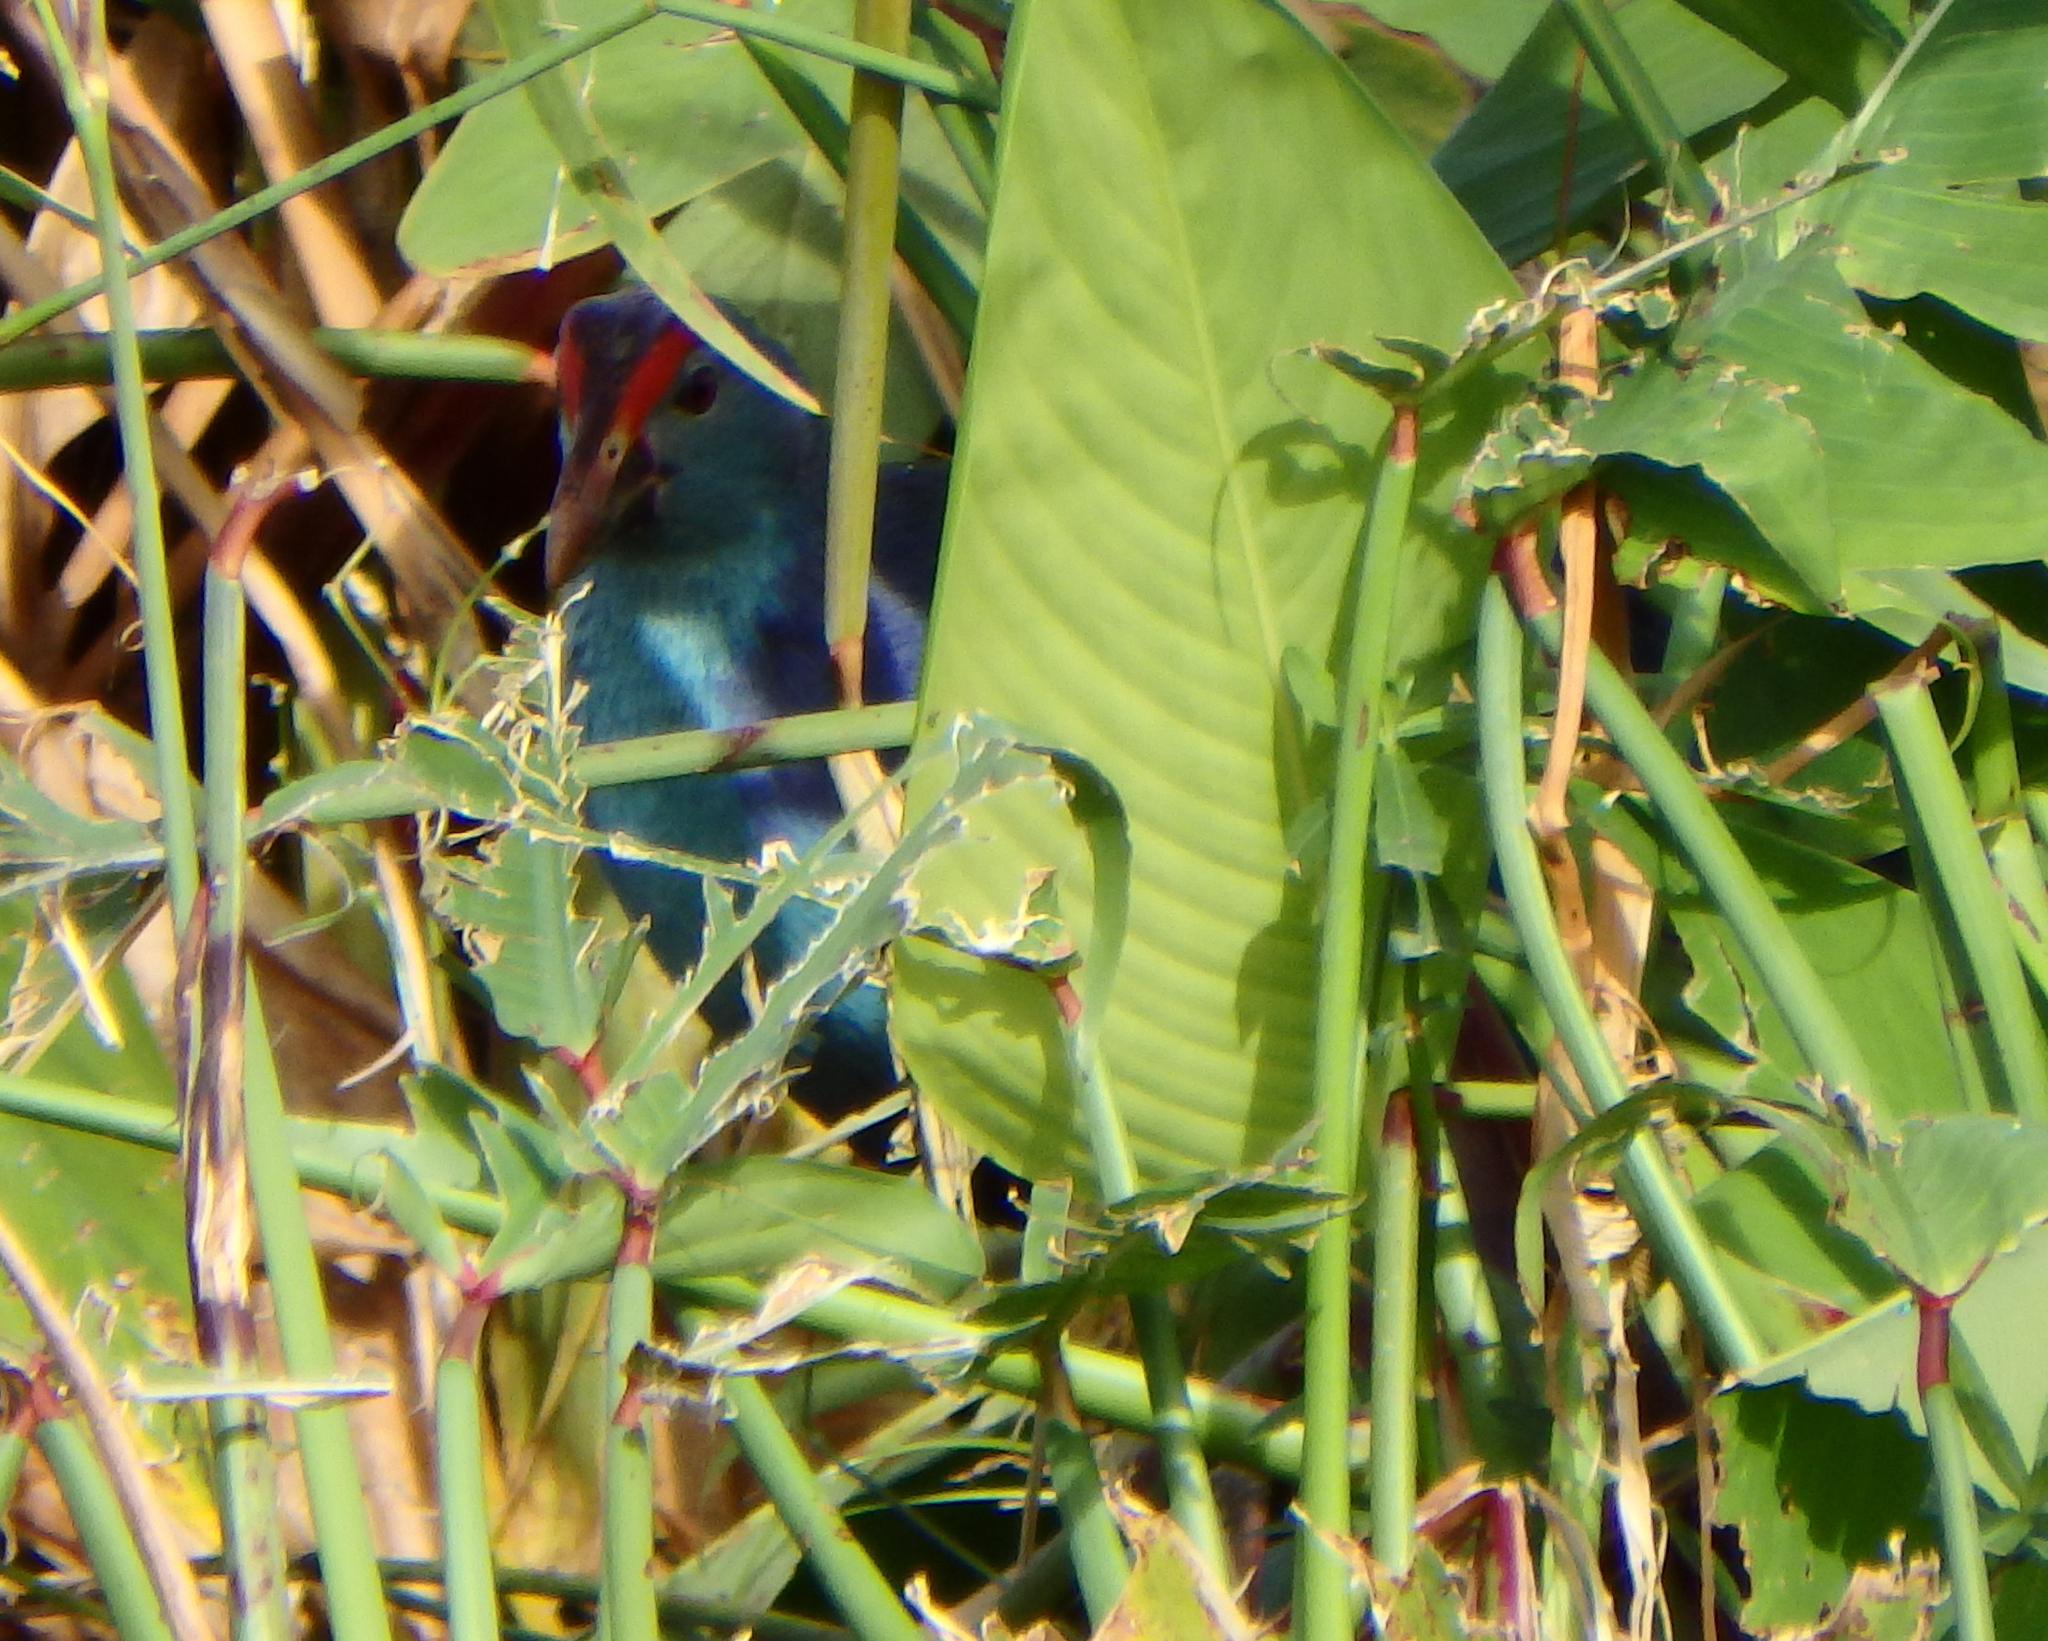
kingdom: Animalia
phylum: Chordata
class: Aves
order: Gruiformes
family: Rallidae
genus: Porphyrio
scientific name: Porphyrio porphyrio
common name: Purple swamphen
